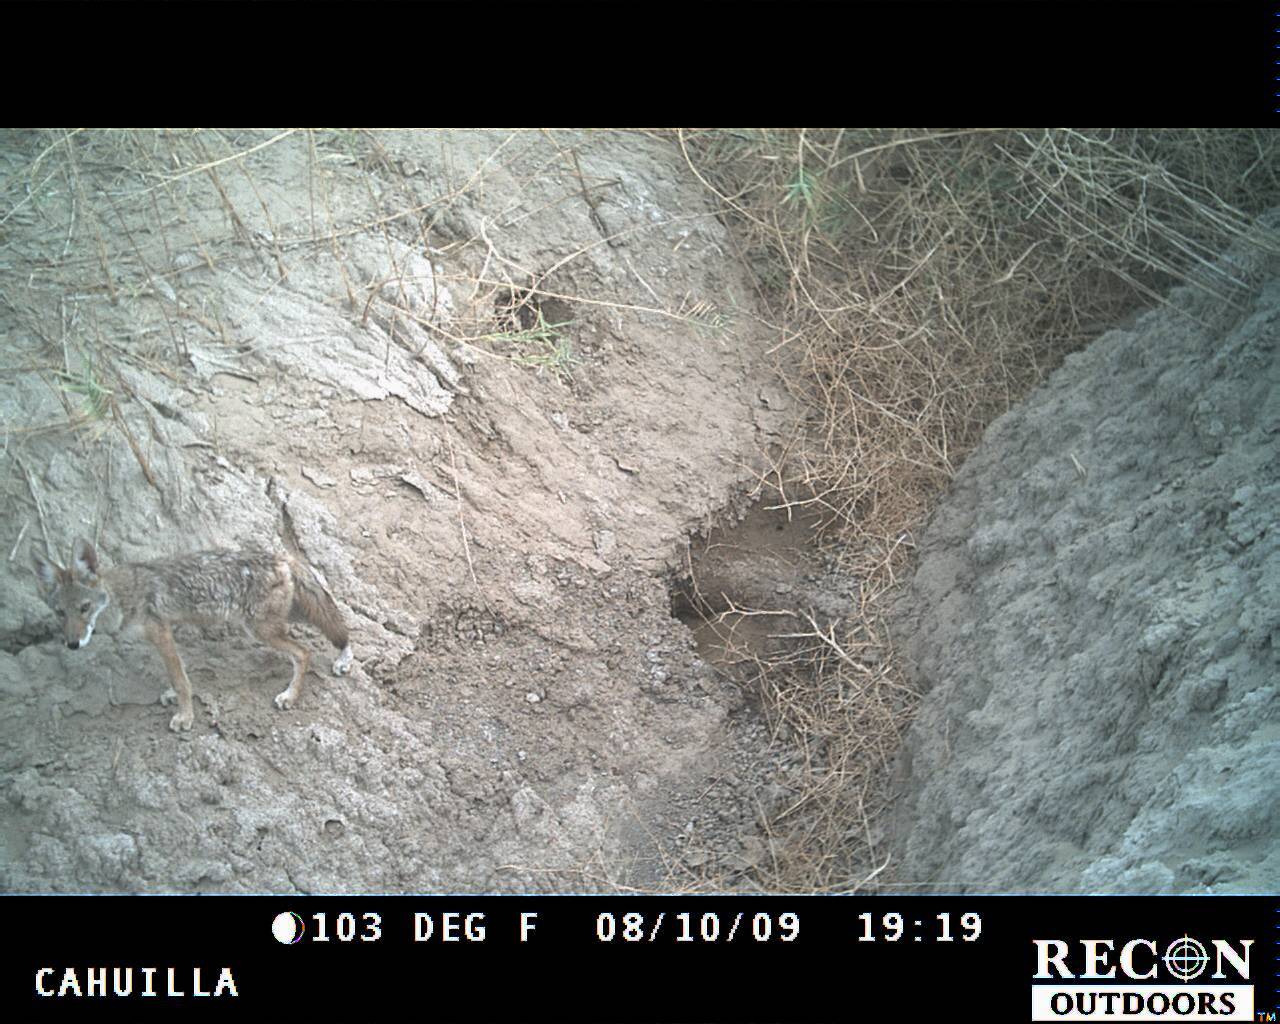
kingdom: Animalia
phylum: Chordata
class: Mammalia
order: Carnivora
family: Canidae
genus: Canis
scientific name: Canis latrans
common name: Coyote
